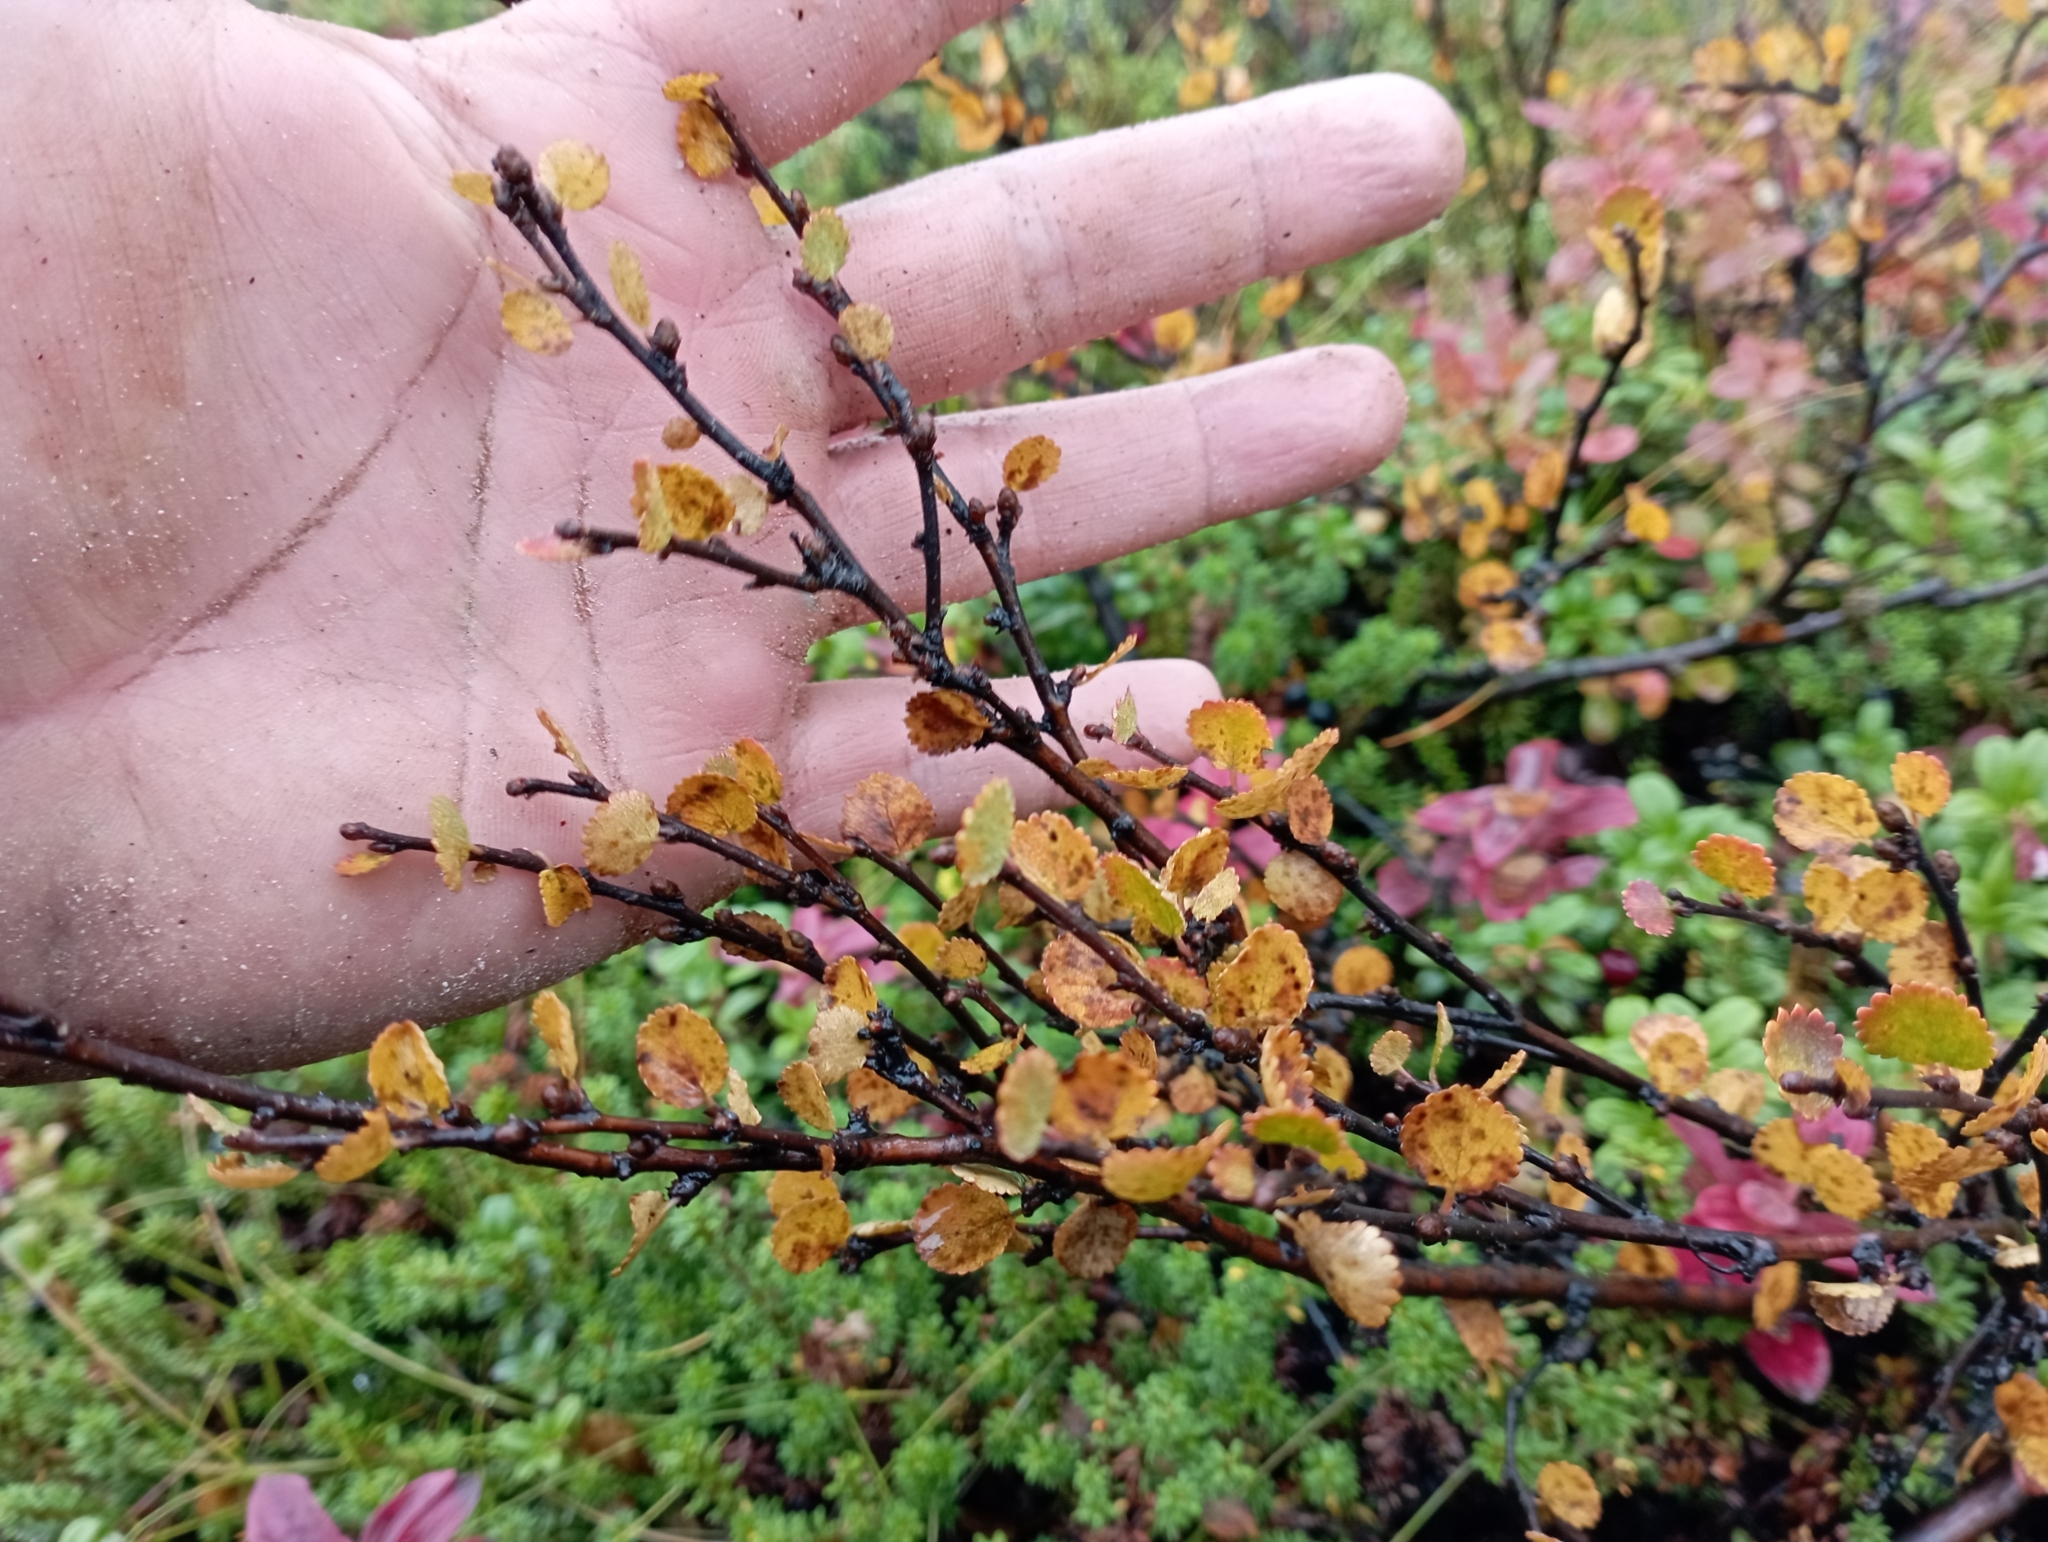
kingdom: Plantae
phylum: Tracheophyta
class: Magnoliopsida
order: Fagales
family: Betulaceae
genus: Betula
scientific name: Betula nana
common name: Arctic dwarf birch
